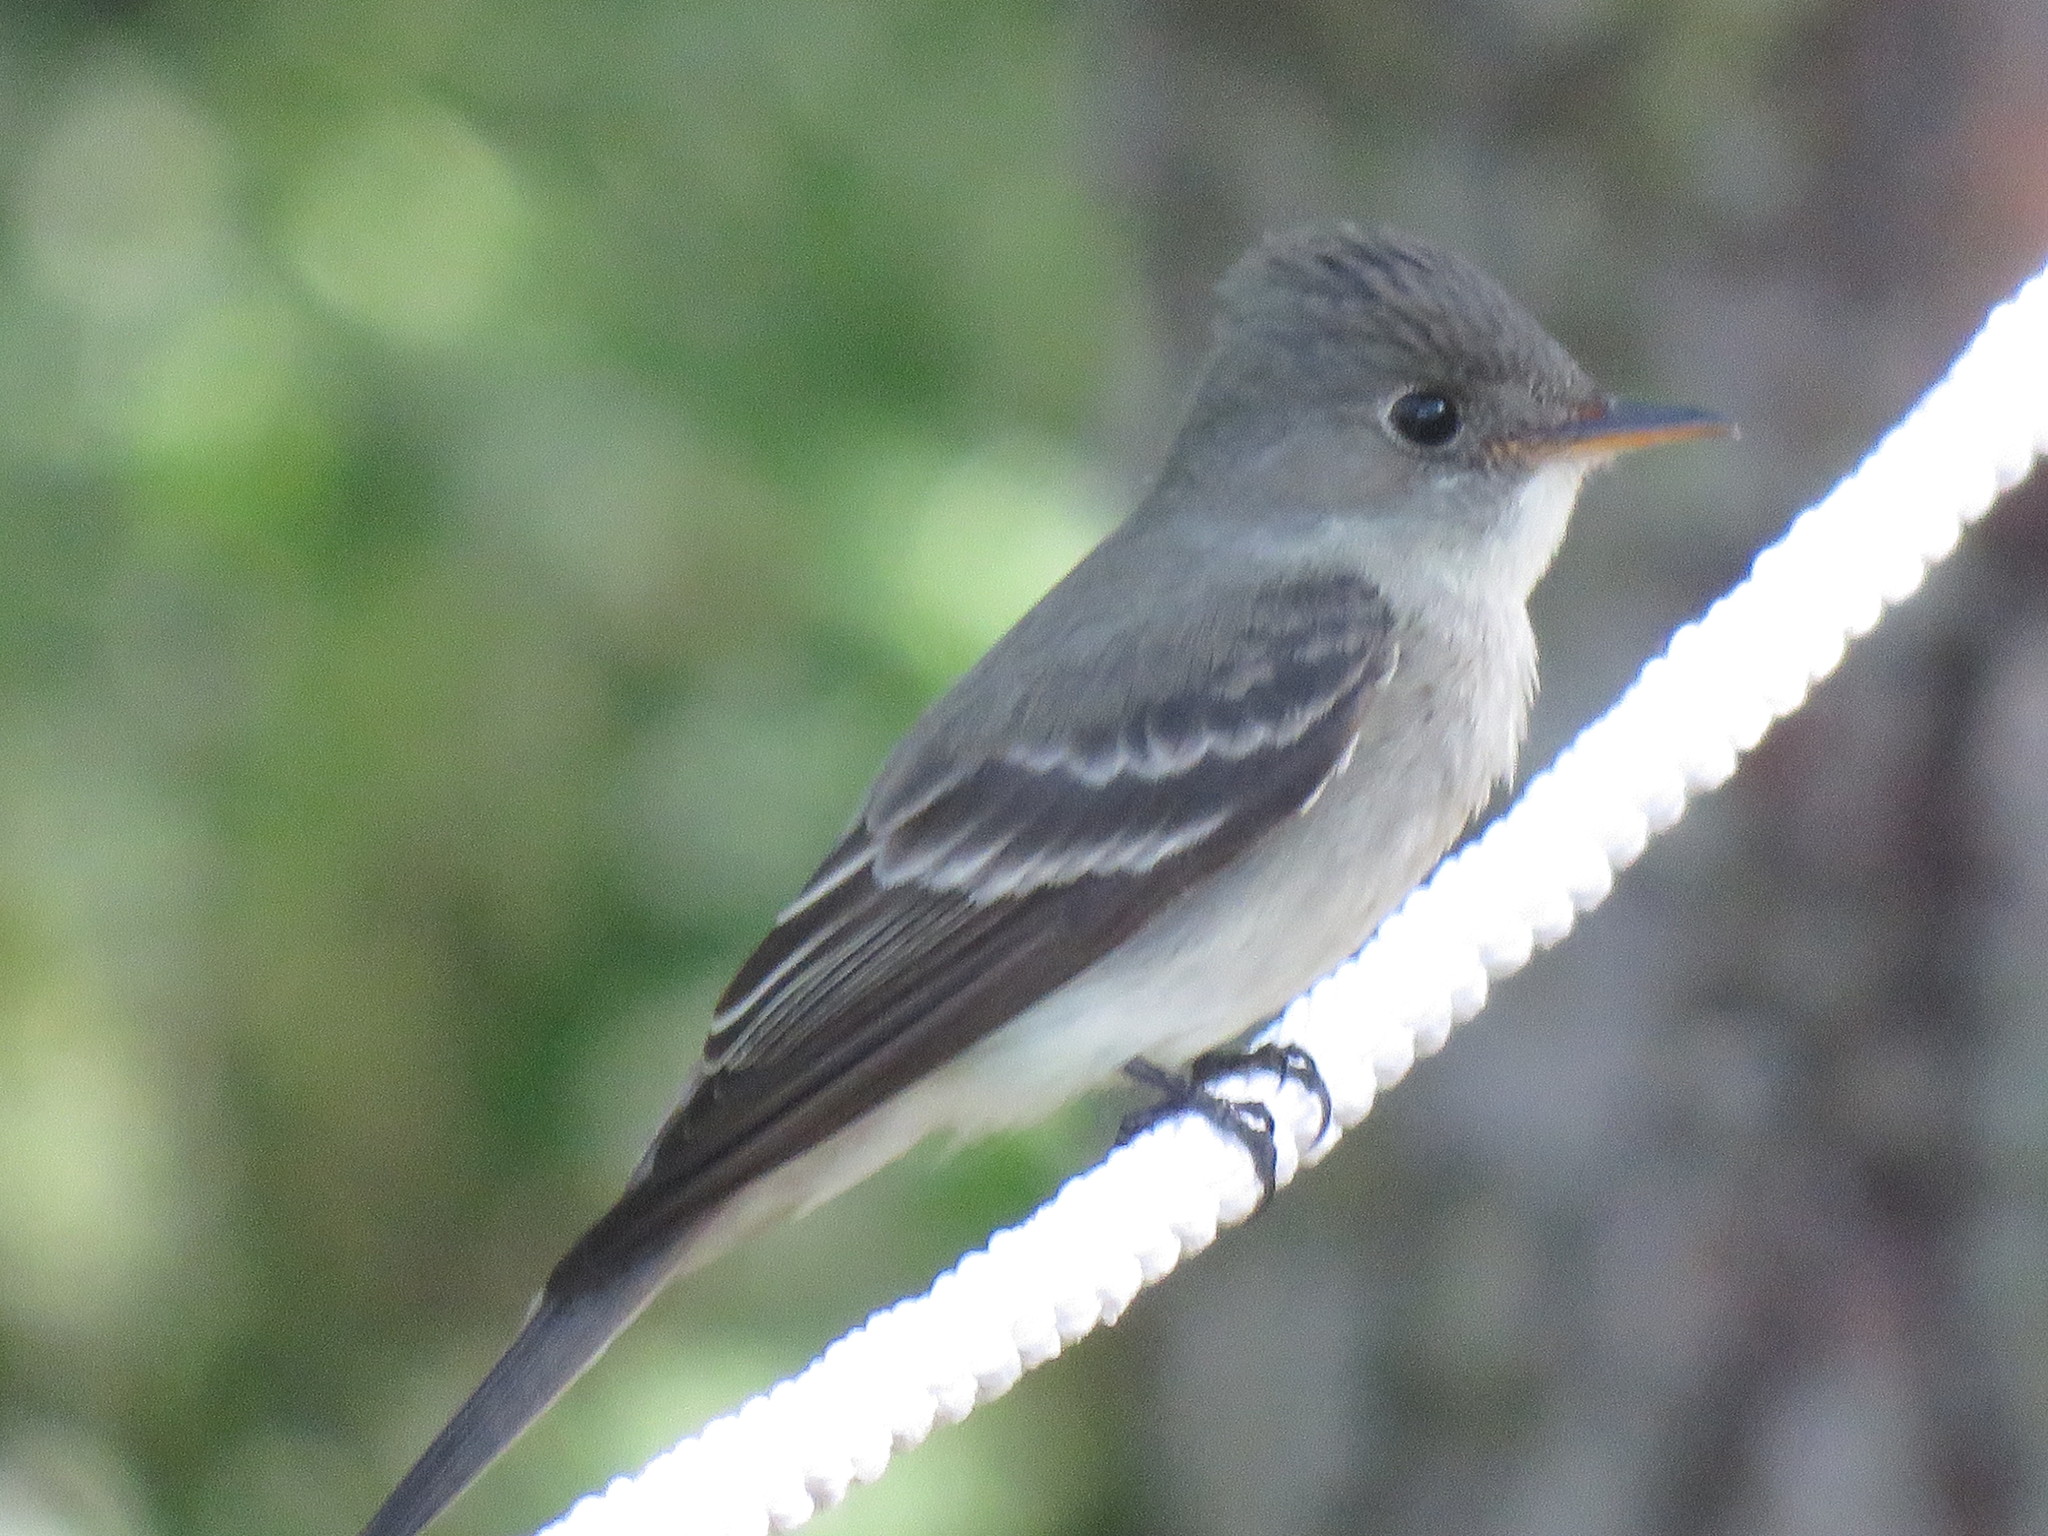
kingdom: Animalia
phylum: Chordata
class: Aves
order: Passeriformes
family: Tyrannidae
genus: Contopus
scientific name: Contopus virens
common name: Eastern wood-pewee
